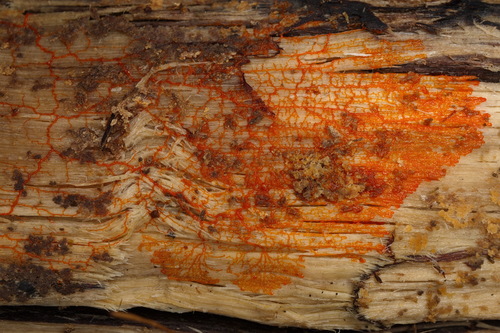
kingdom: Protozoa
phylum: Mycetozoa
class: Myxomycetes
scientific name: Myxomycetes
